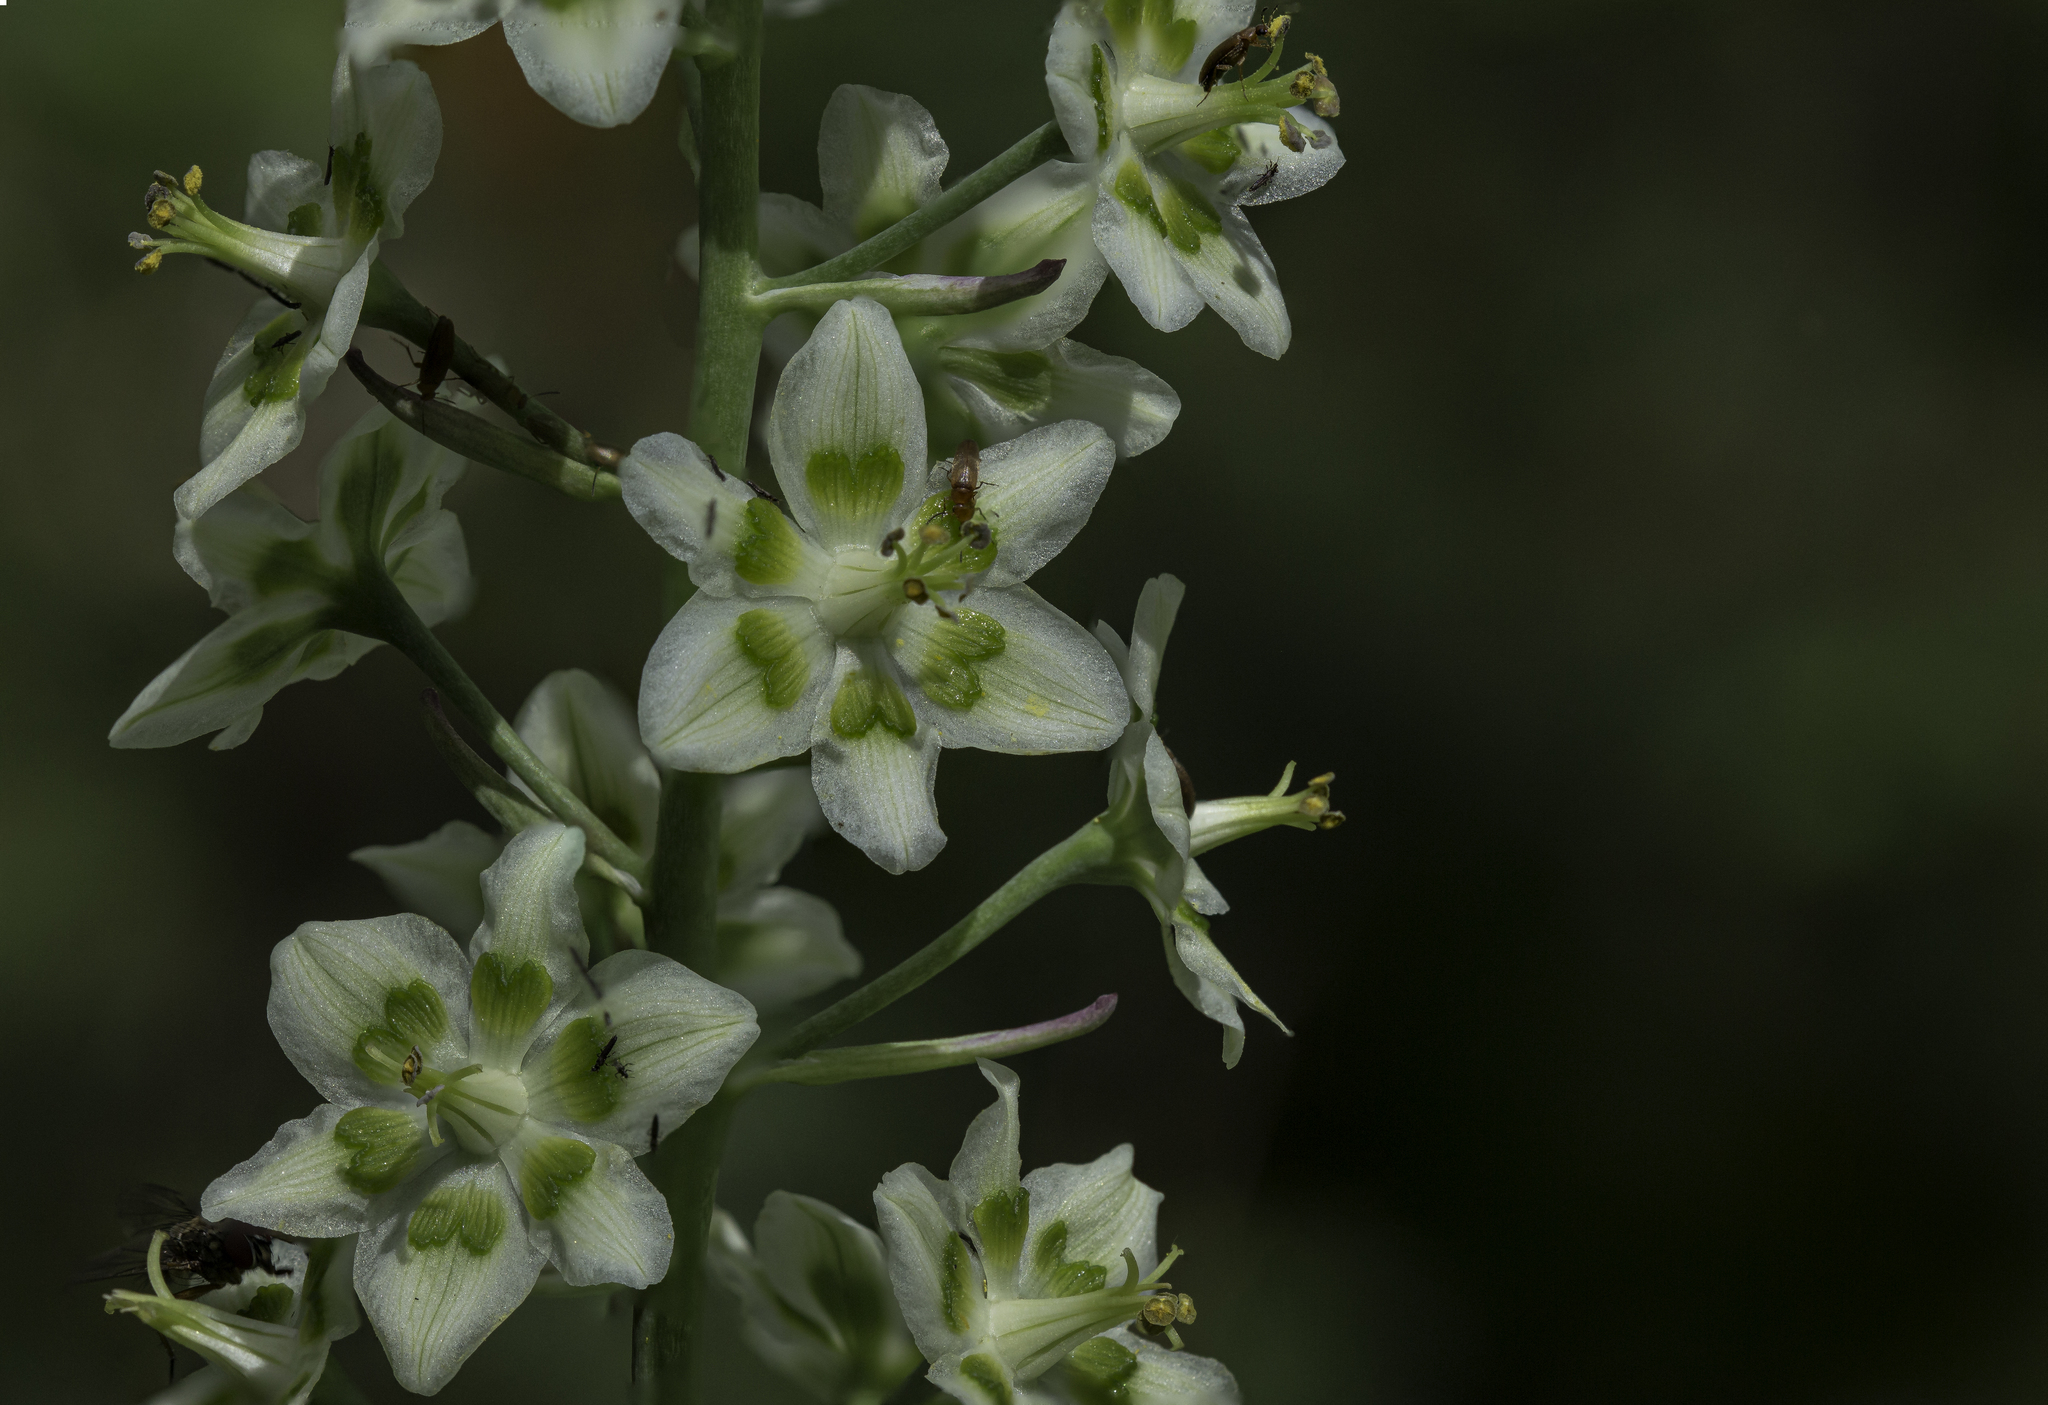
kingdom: Plantae
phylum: Tracheophyta
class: Liliopsida
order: Liliales
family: Melanthiaceae
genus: Anticlea
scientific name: Anticlea elegans
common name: Mountain death camas
